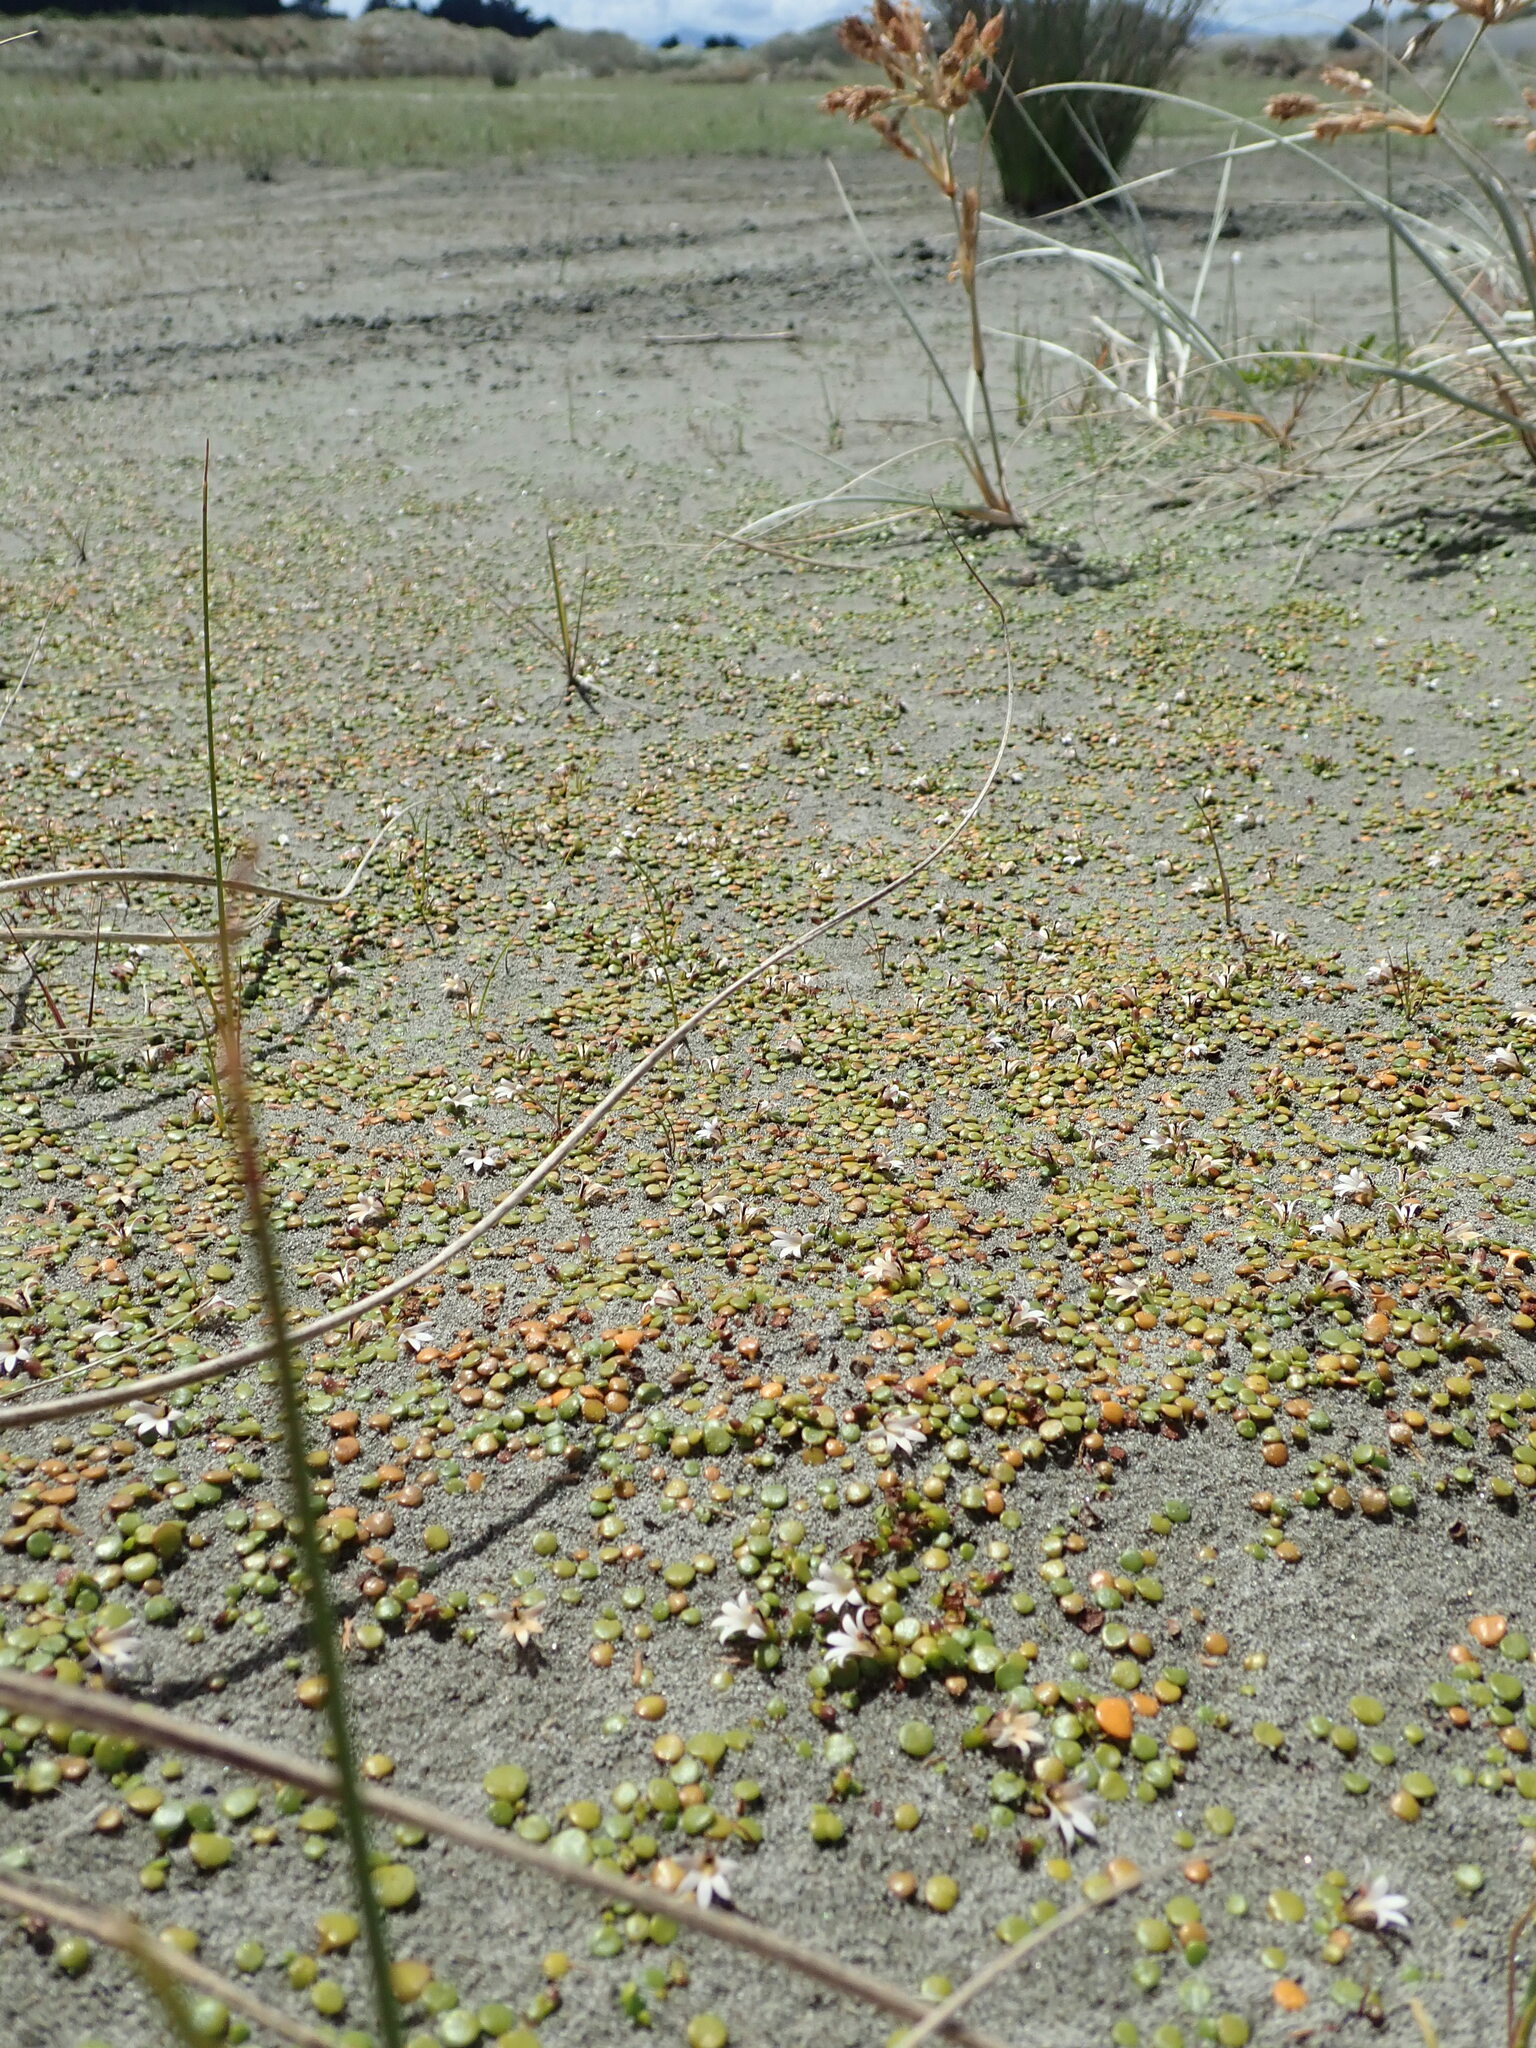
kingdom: Plantae
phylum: Tracheophyta
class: Magnoliopsida
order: Asterales
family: Goodeniaceae
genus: Goodenia
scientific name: Goodenia heenanii
